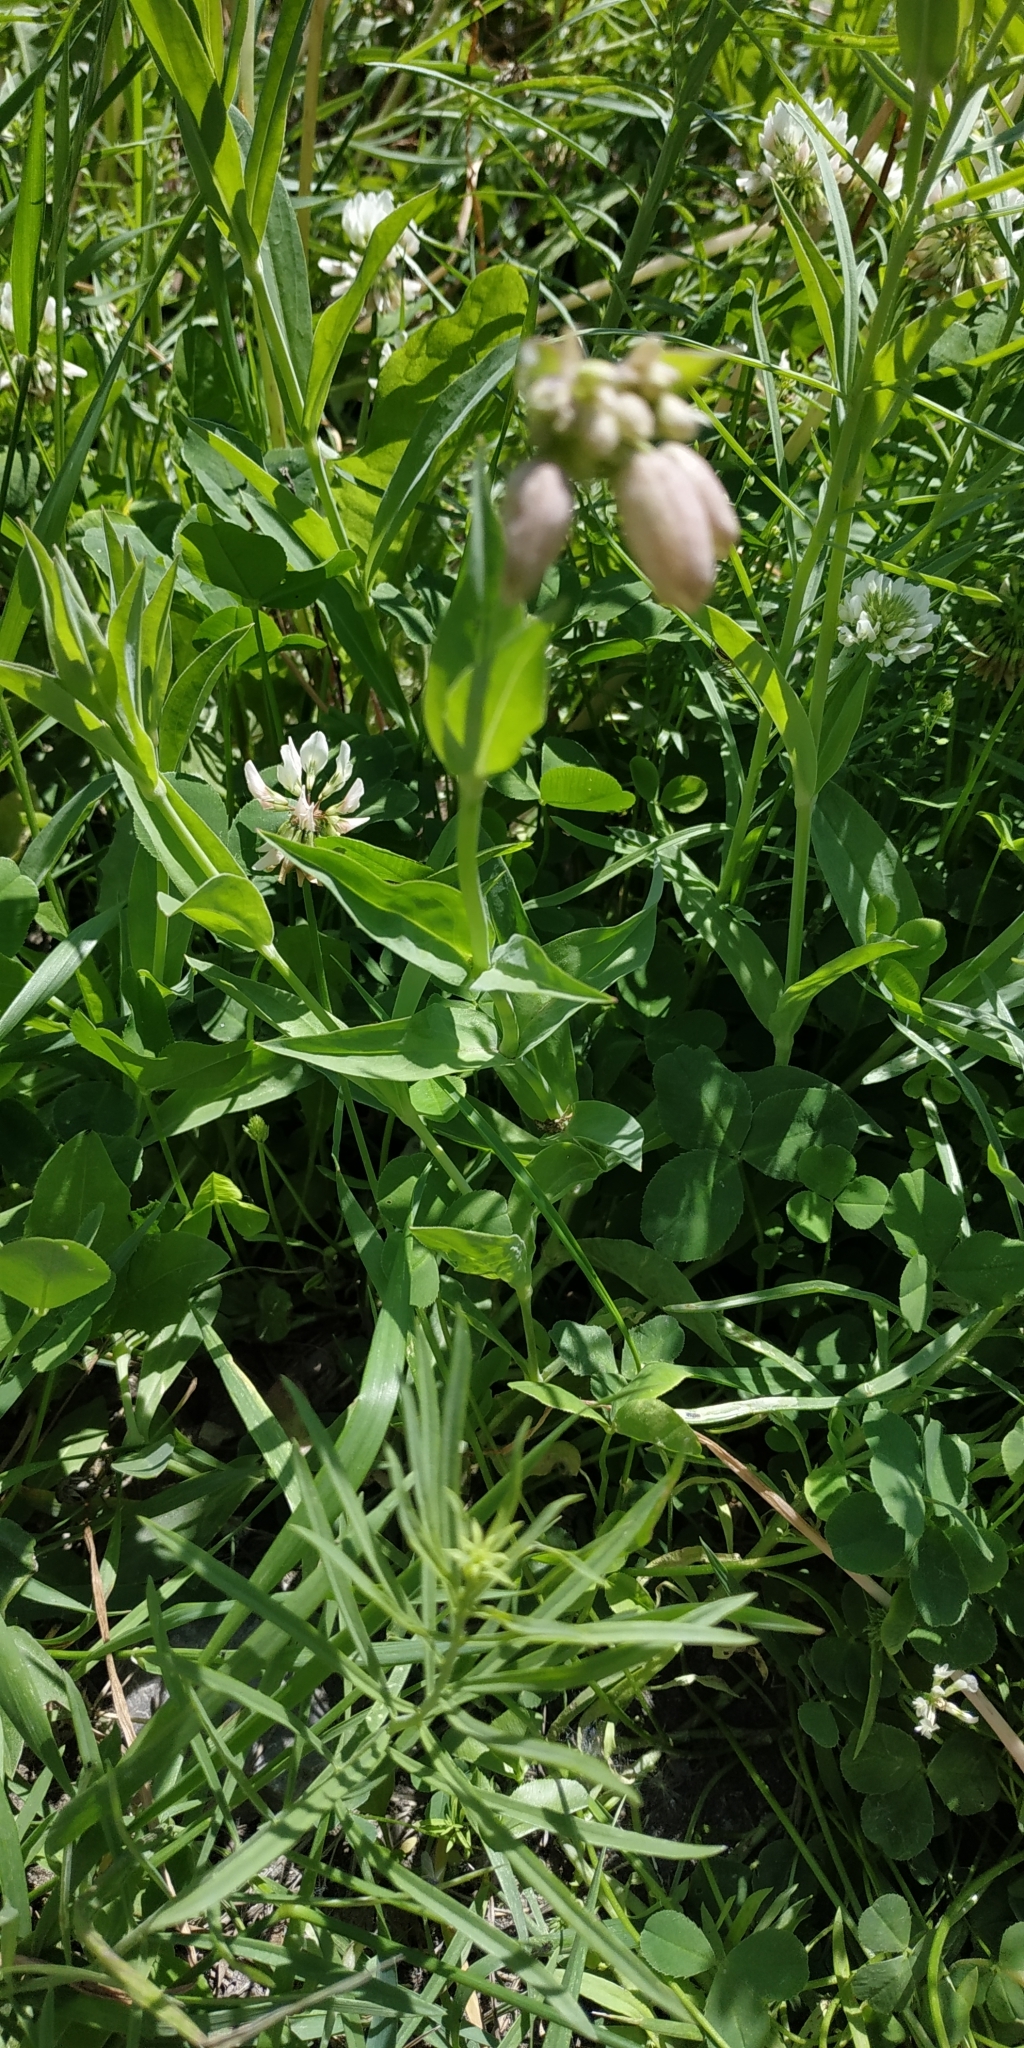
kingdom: Plantae
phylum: Tracheophyta
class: Magnoliopsida
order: Caryophyllales
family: Caryophyllaceae
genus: Silene
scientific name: Silene vulgaris
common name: Bladder campion
